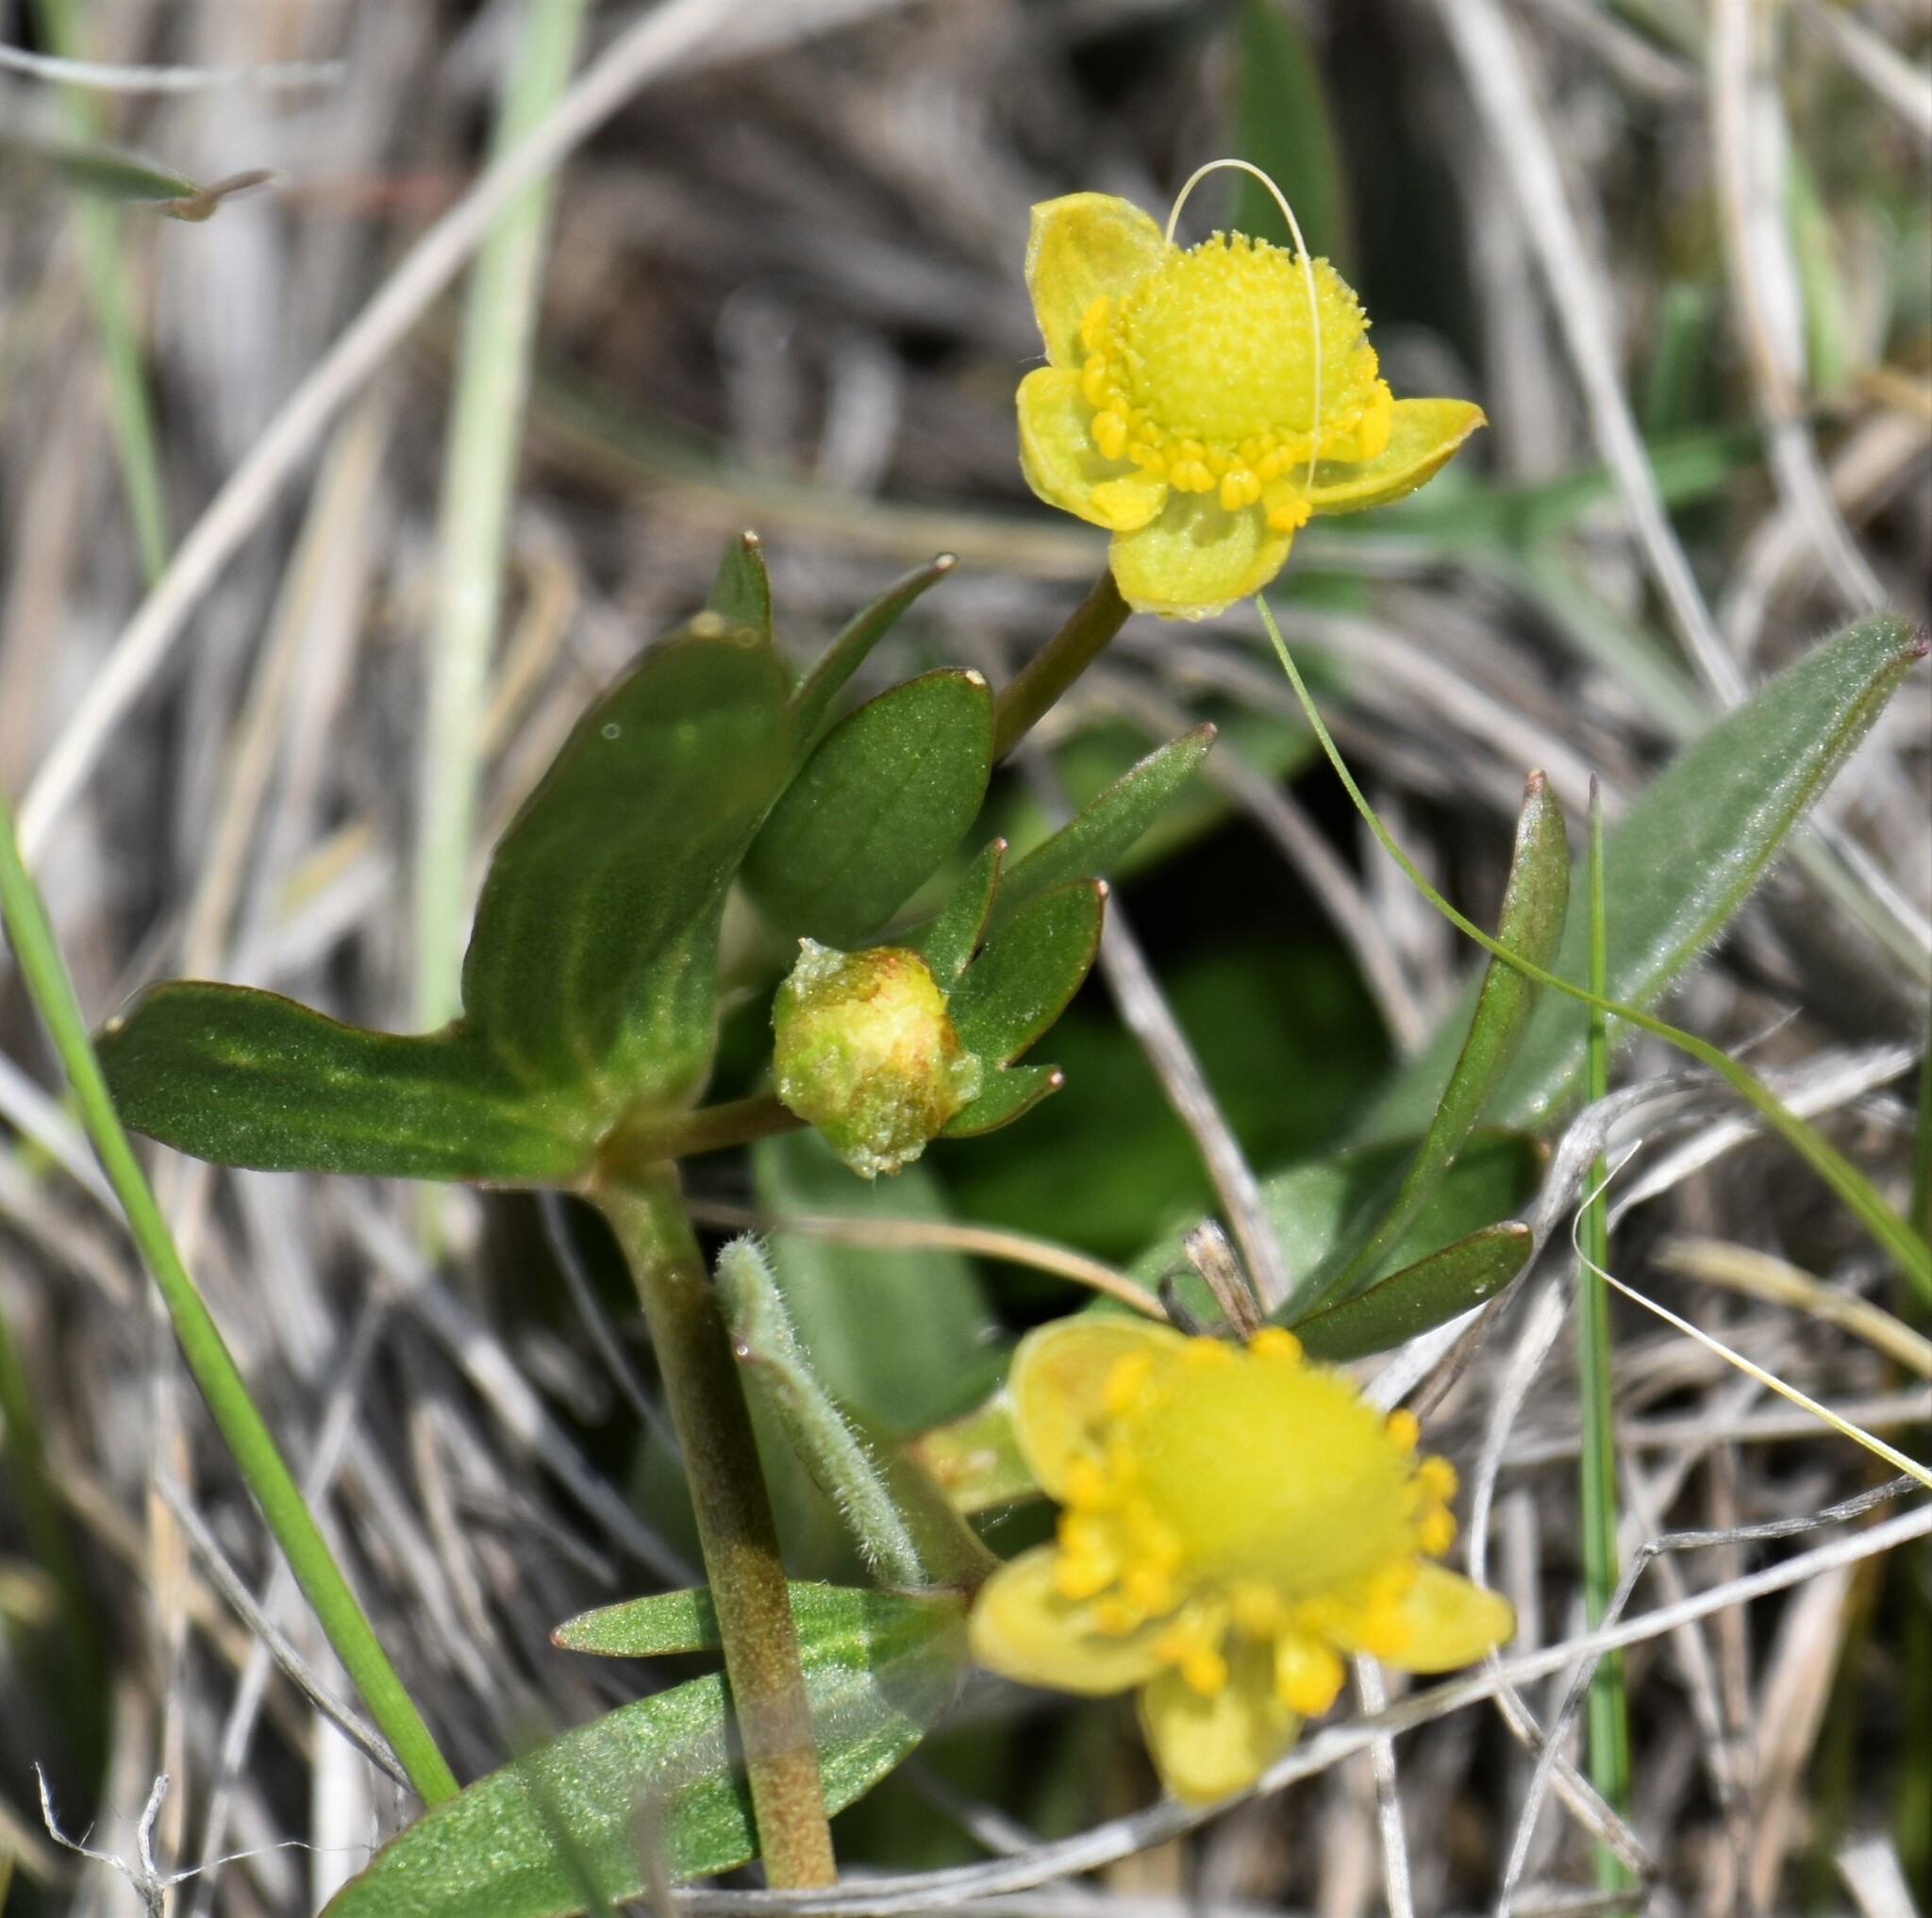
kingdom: Plantae
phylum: Tracheophyta
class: Magnoliopsida
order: Ranunculales
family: Ranunculaceae
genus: Ranunculus
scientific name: Ranunculus glaberrimus
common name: Sagebrush buttercup
